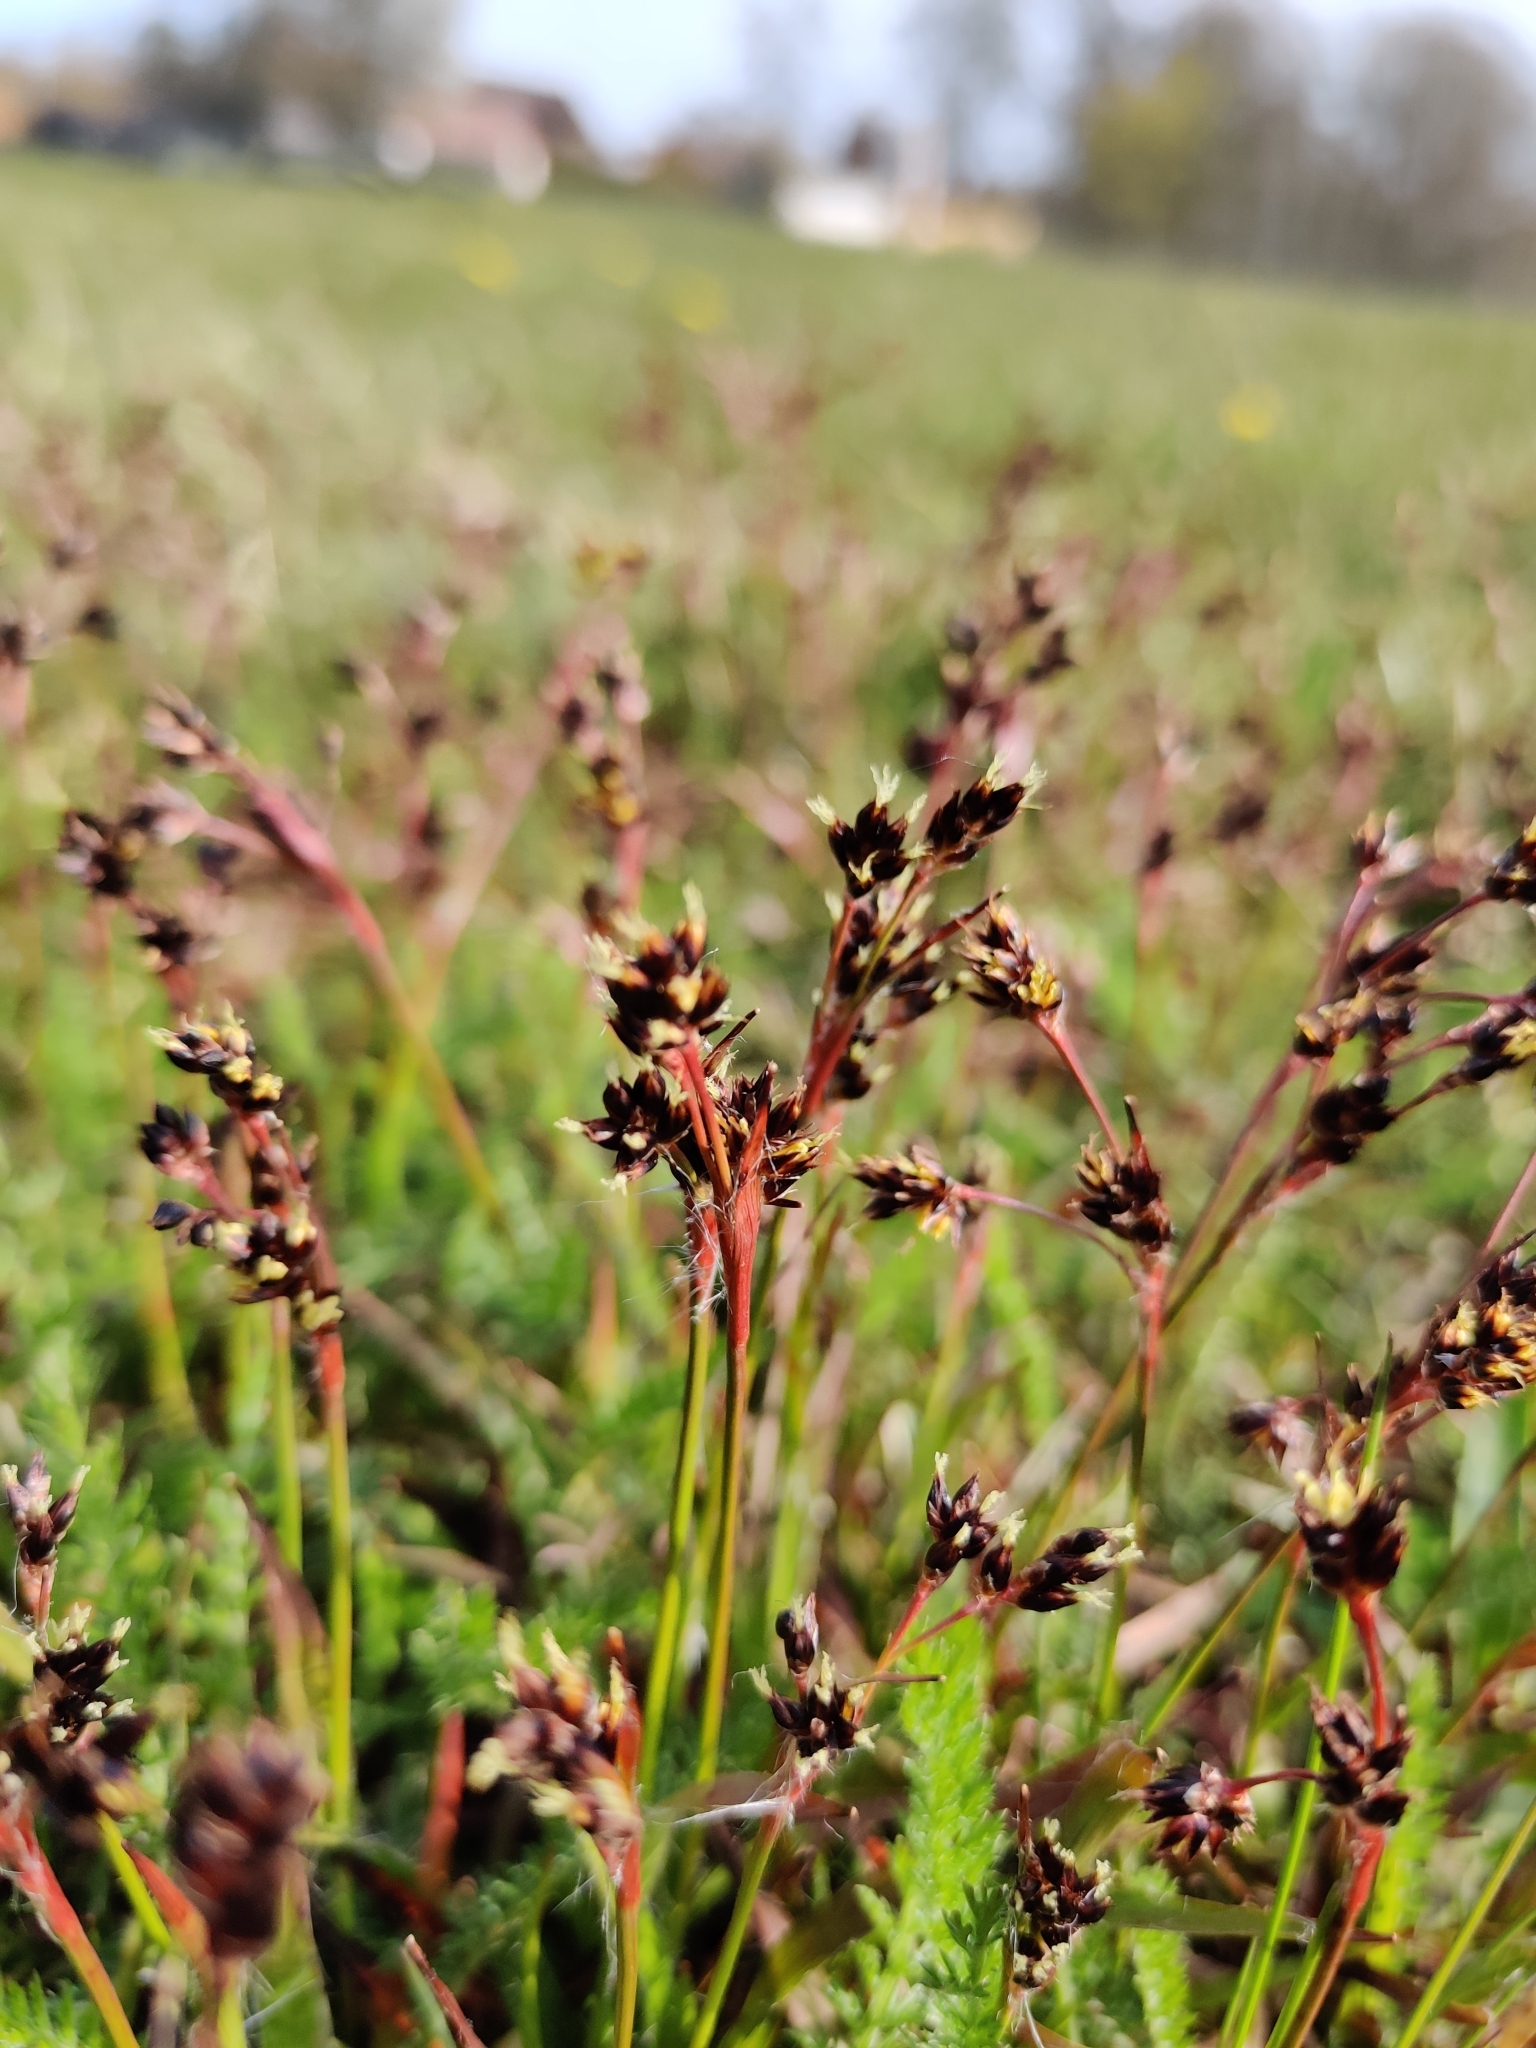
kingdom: Plantae
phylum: Tracheophyta
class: Liliopsida
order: Poales
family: Juncaceae
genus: Luzula
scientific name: Luzula campestris
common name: Field wood-rush
